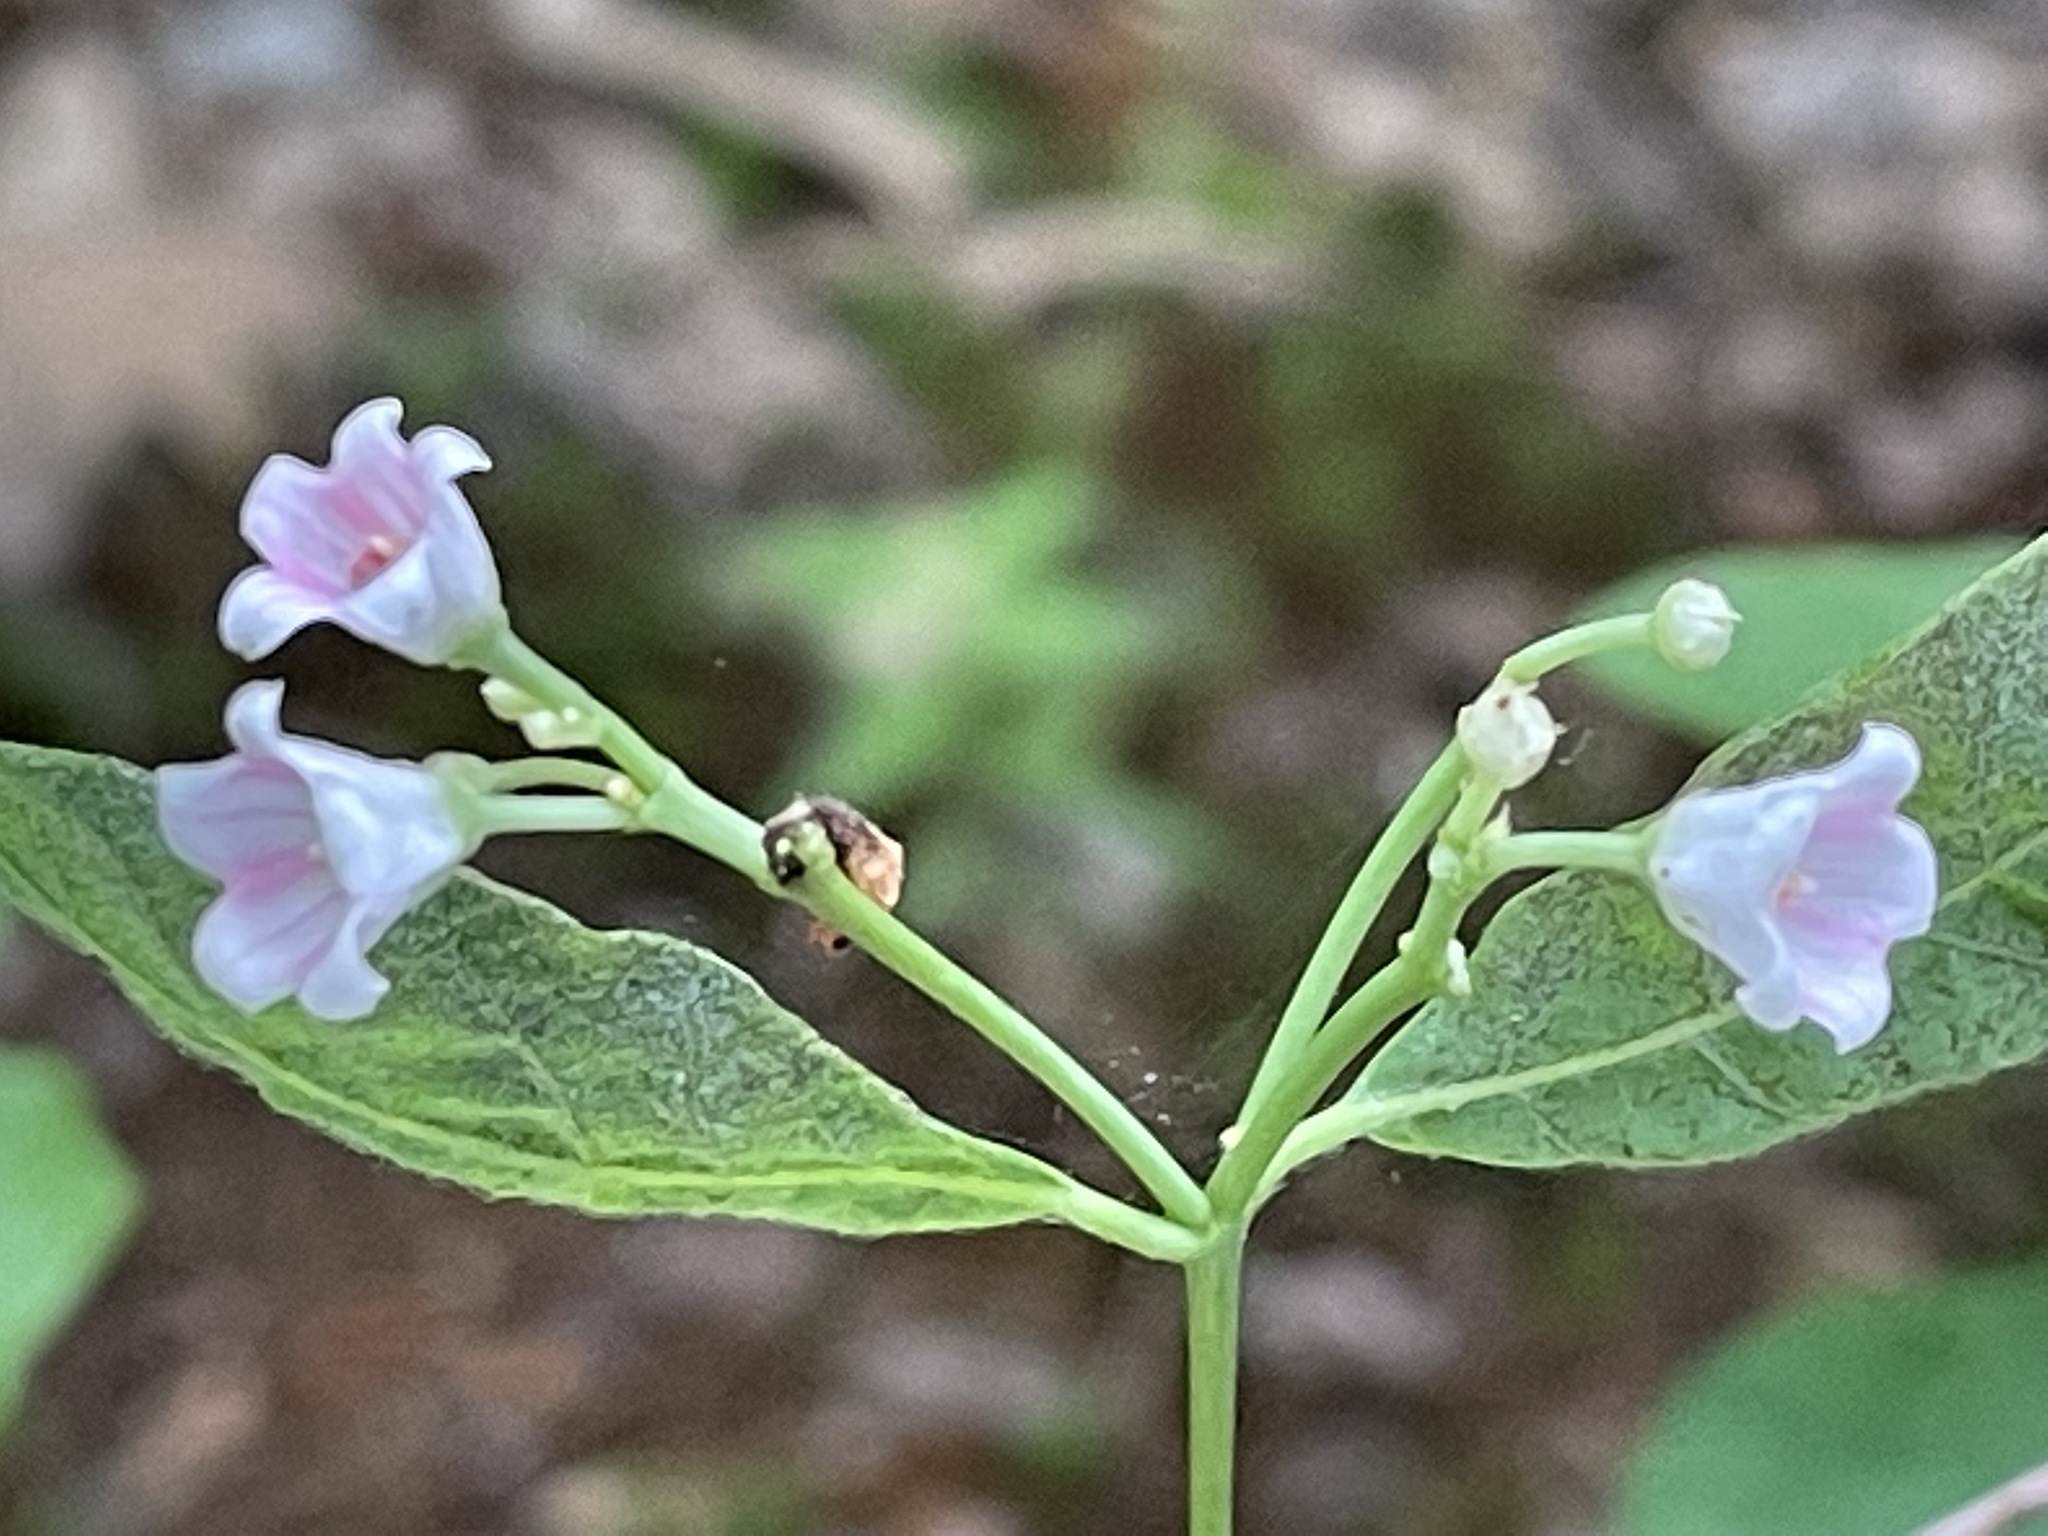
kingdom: Plantae
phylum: Tracheophyta
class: Magnoliopsida
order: Gentianales
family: Apocynaceae
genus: Apocynum
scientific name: Apocynum androsaemifolium
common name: Spreading dogbane
